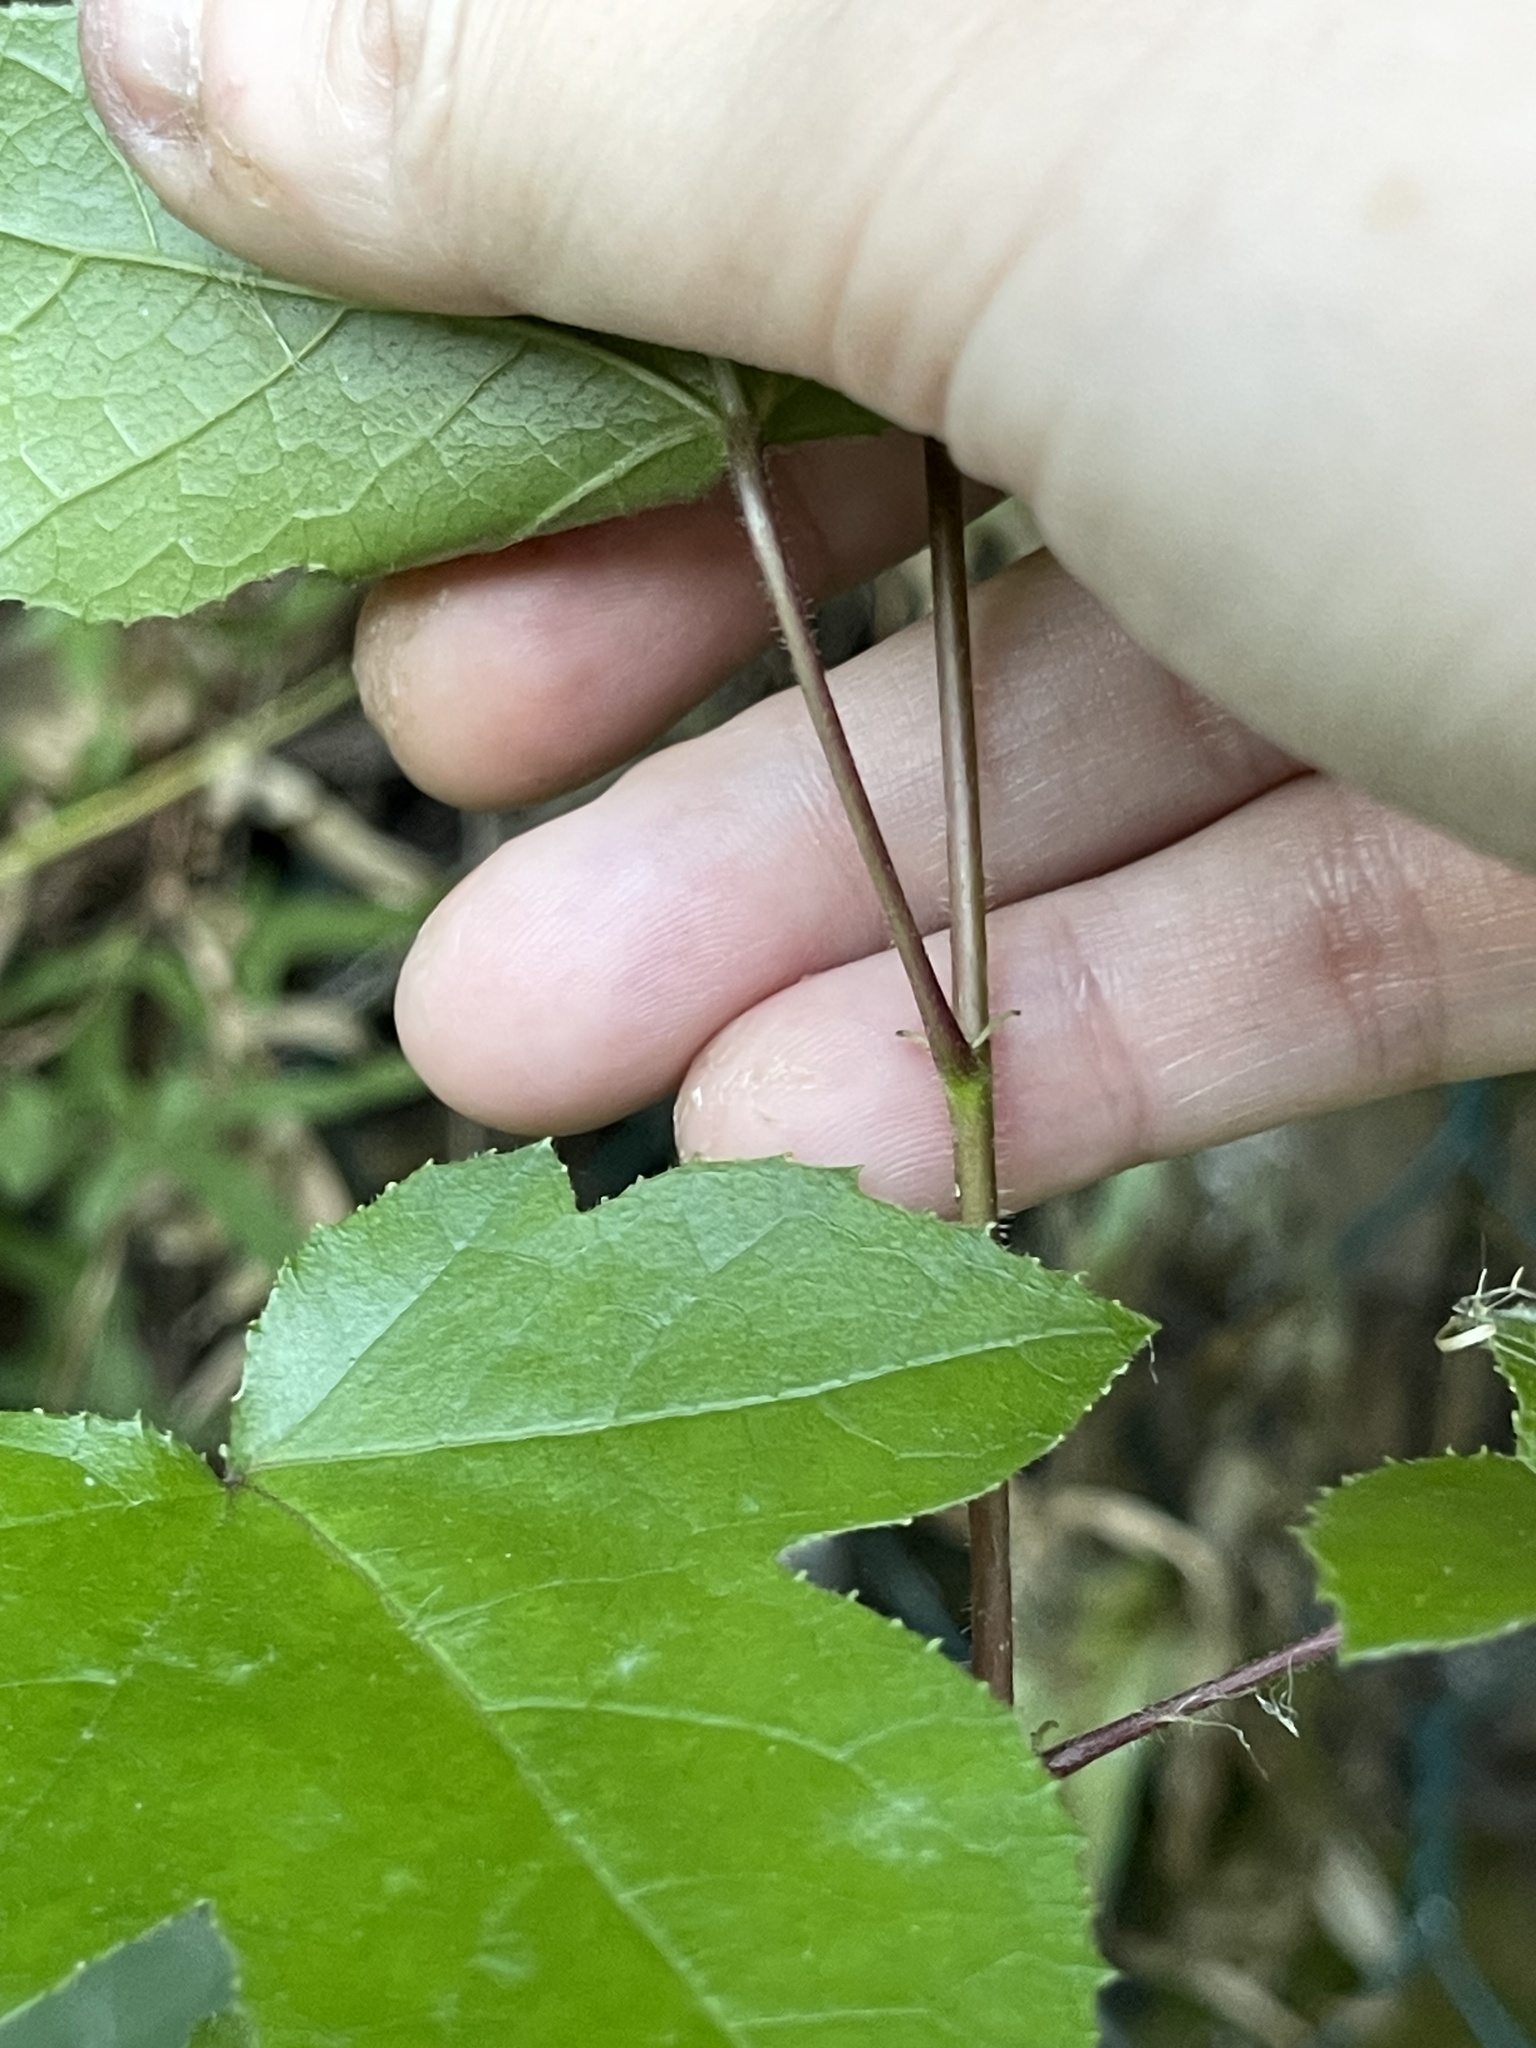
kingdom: Plantae
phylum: Tracheophyta
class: Magnoliopsida
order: Saxifragales
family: Altingiaceae
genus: Liquidambar
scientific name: Liquidambar formosana
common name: Chinese sweet gum
